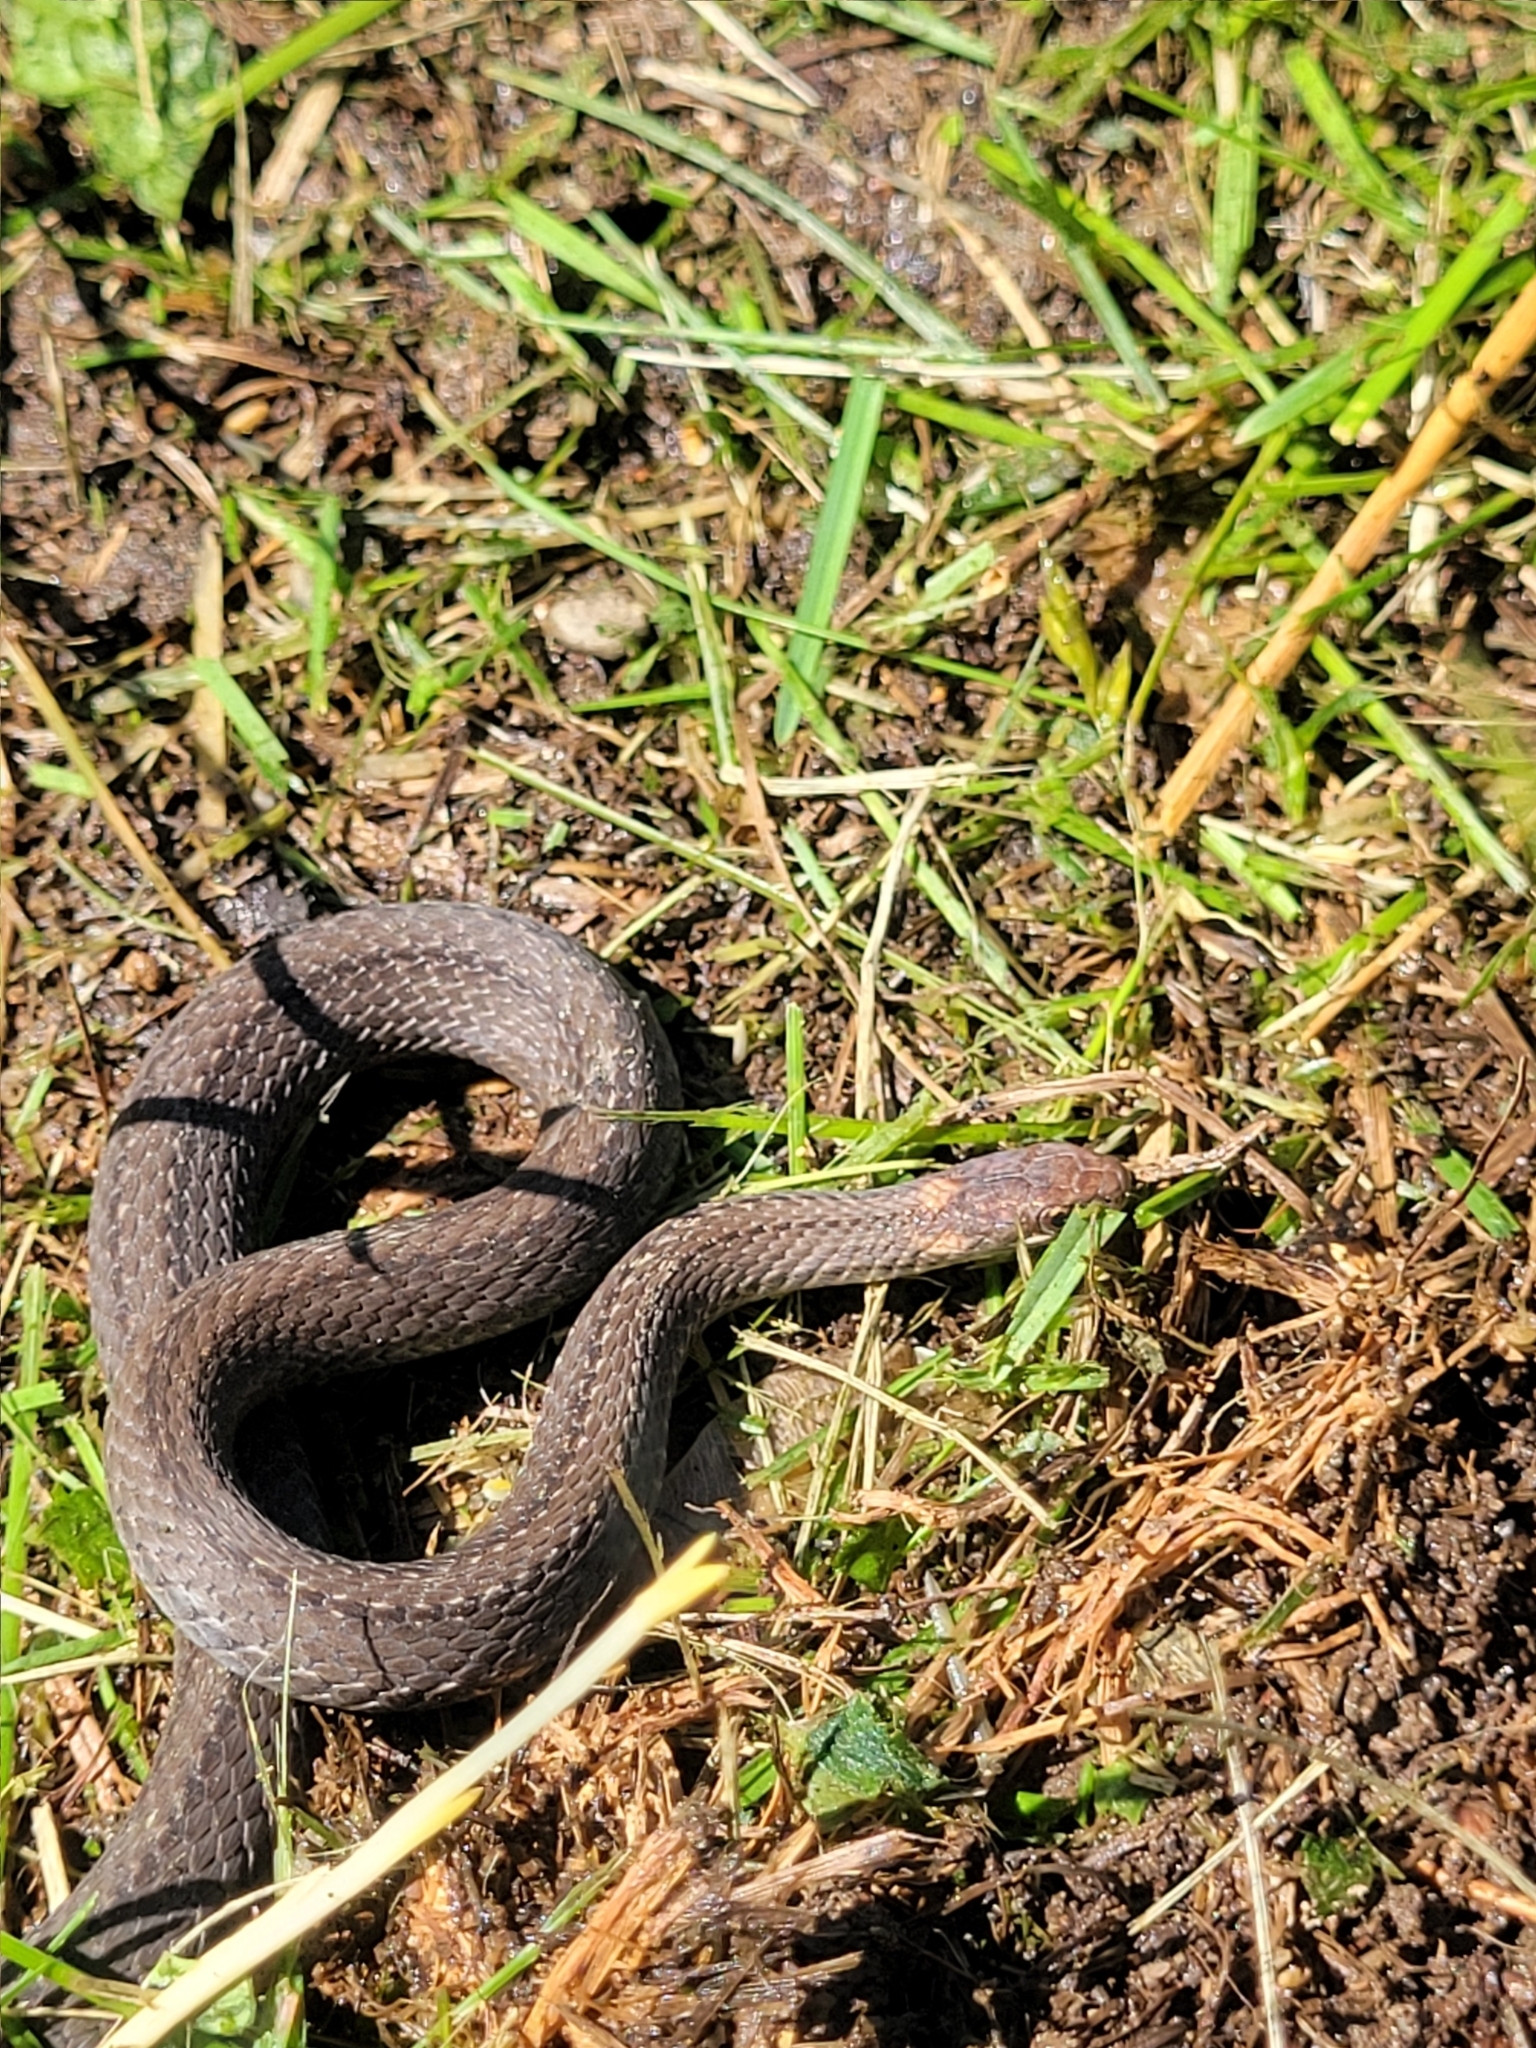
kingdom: Animalia
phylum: Chordata
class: Squamata
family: Colubridae
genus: Storeria
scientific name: Storeria occipitomaculata
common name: Redbelly snake
